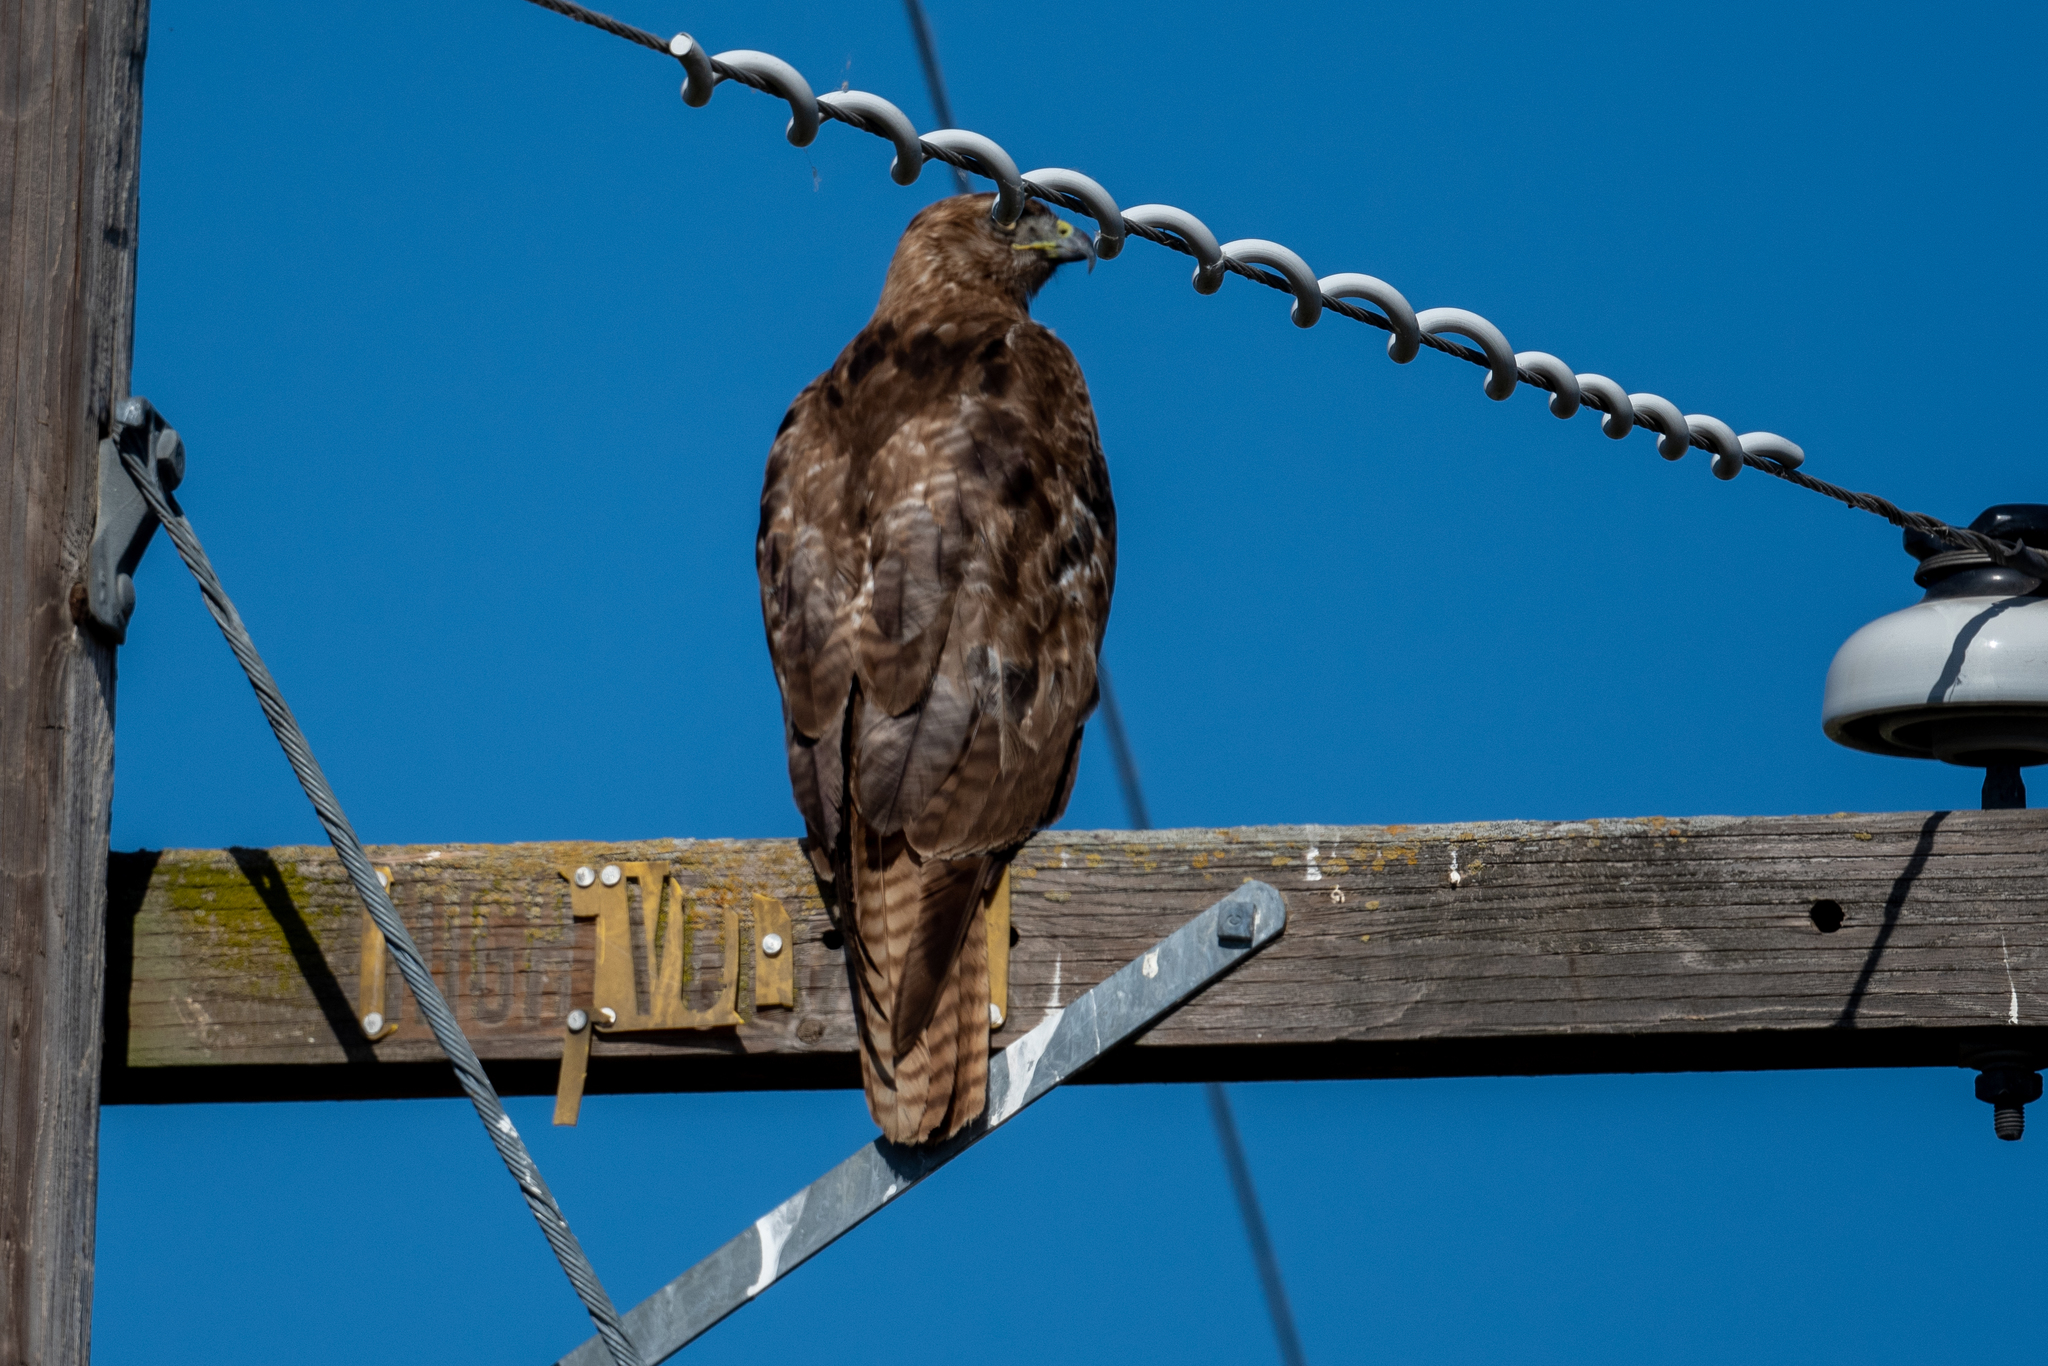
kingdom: Animalia
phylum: Chordata
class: Aves
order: Accipitriformes
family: Accipitridae
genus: Buteo
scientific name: Buteo jamaicensis
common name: Red-tailed hawk
